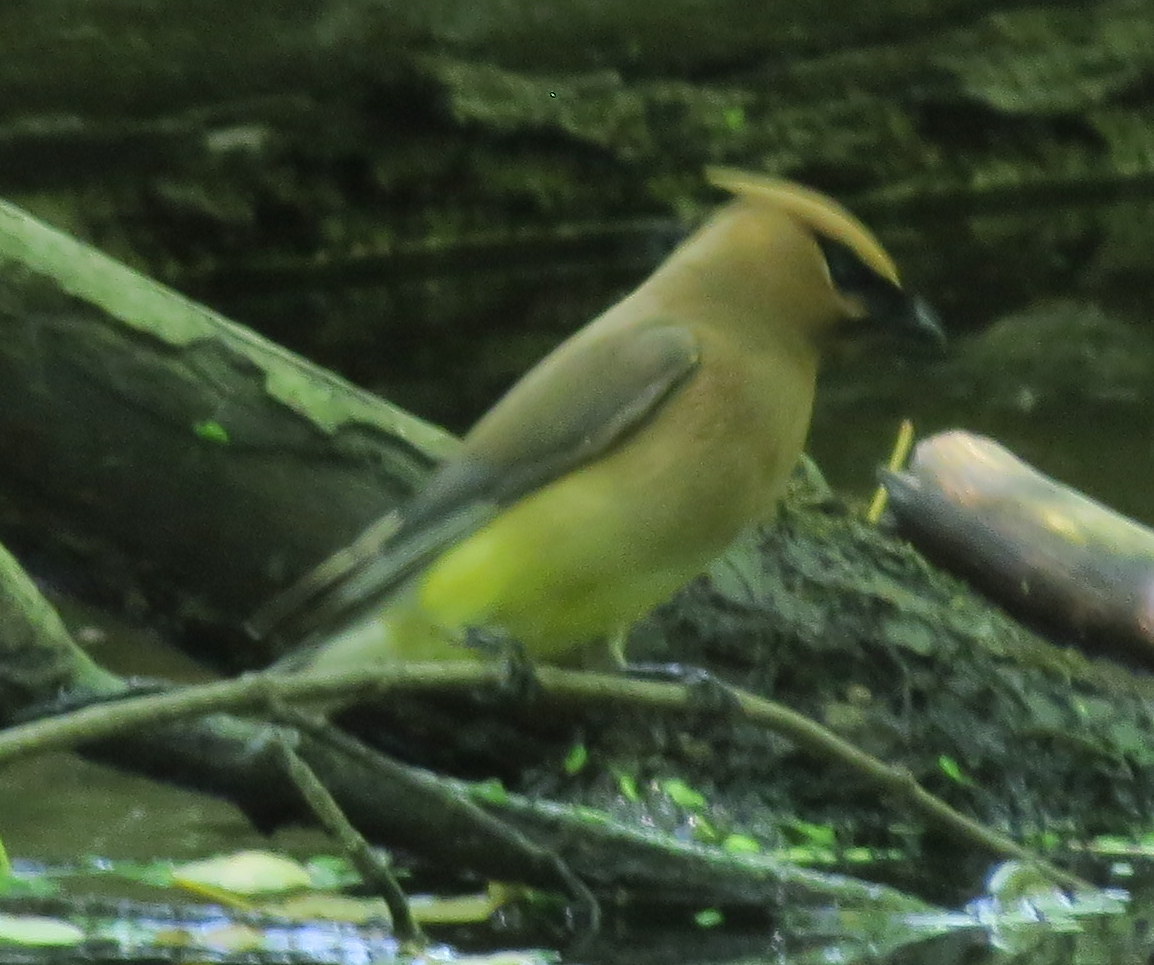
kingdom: Animalia
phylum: Chordata
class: Aves
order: Passeriformes
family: Bombycillidae
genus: Bombycilla
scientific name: Bombycilla cedrorum
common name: Cedar waxwing
